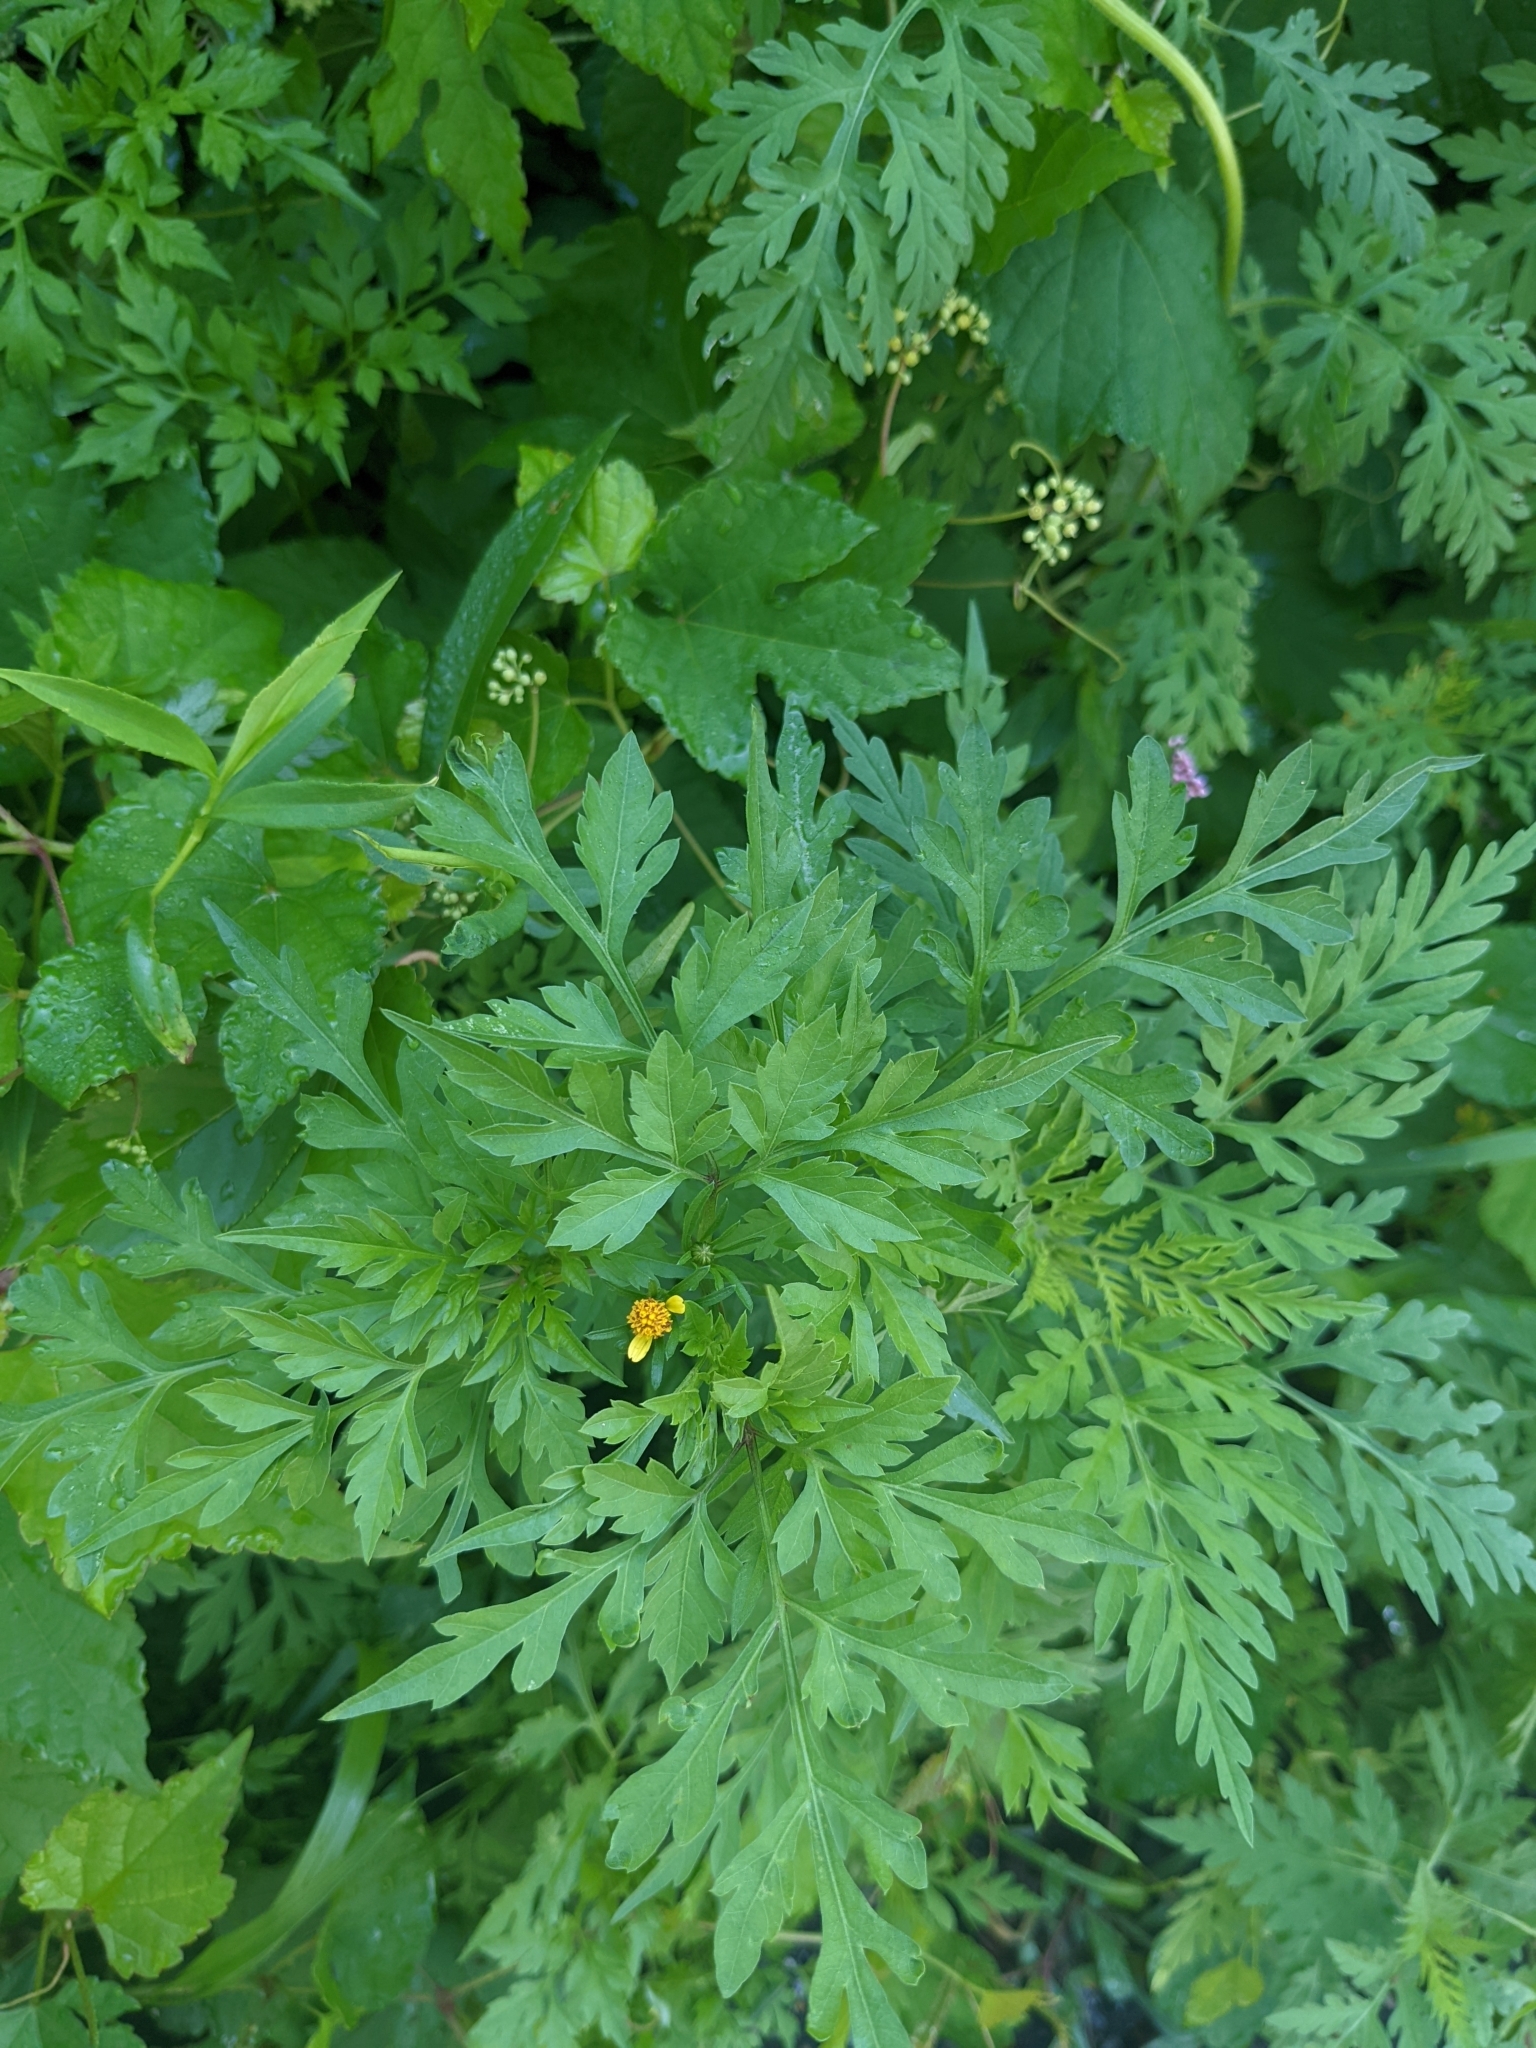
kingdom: Plantae
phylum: Tracheophyta
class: Magnoliopsida
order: Asterales
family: Asteraceae
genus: Bidens
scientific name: Bidens bipinnata
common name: Spanish-needles
